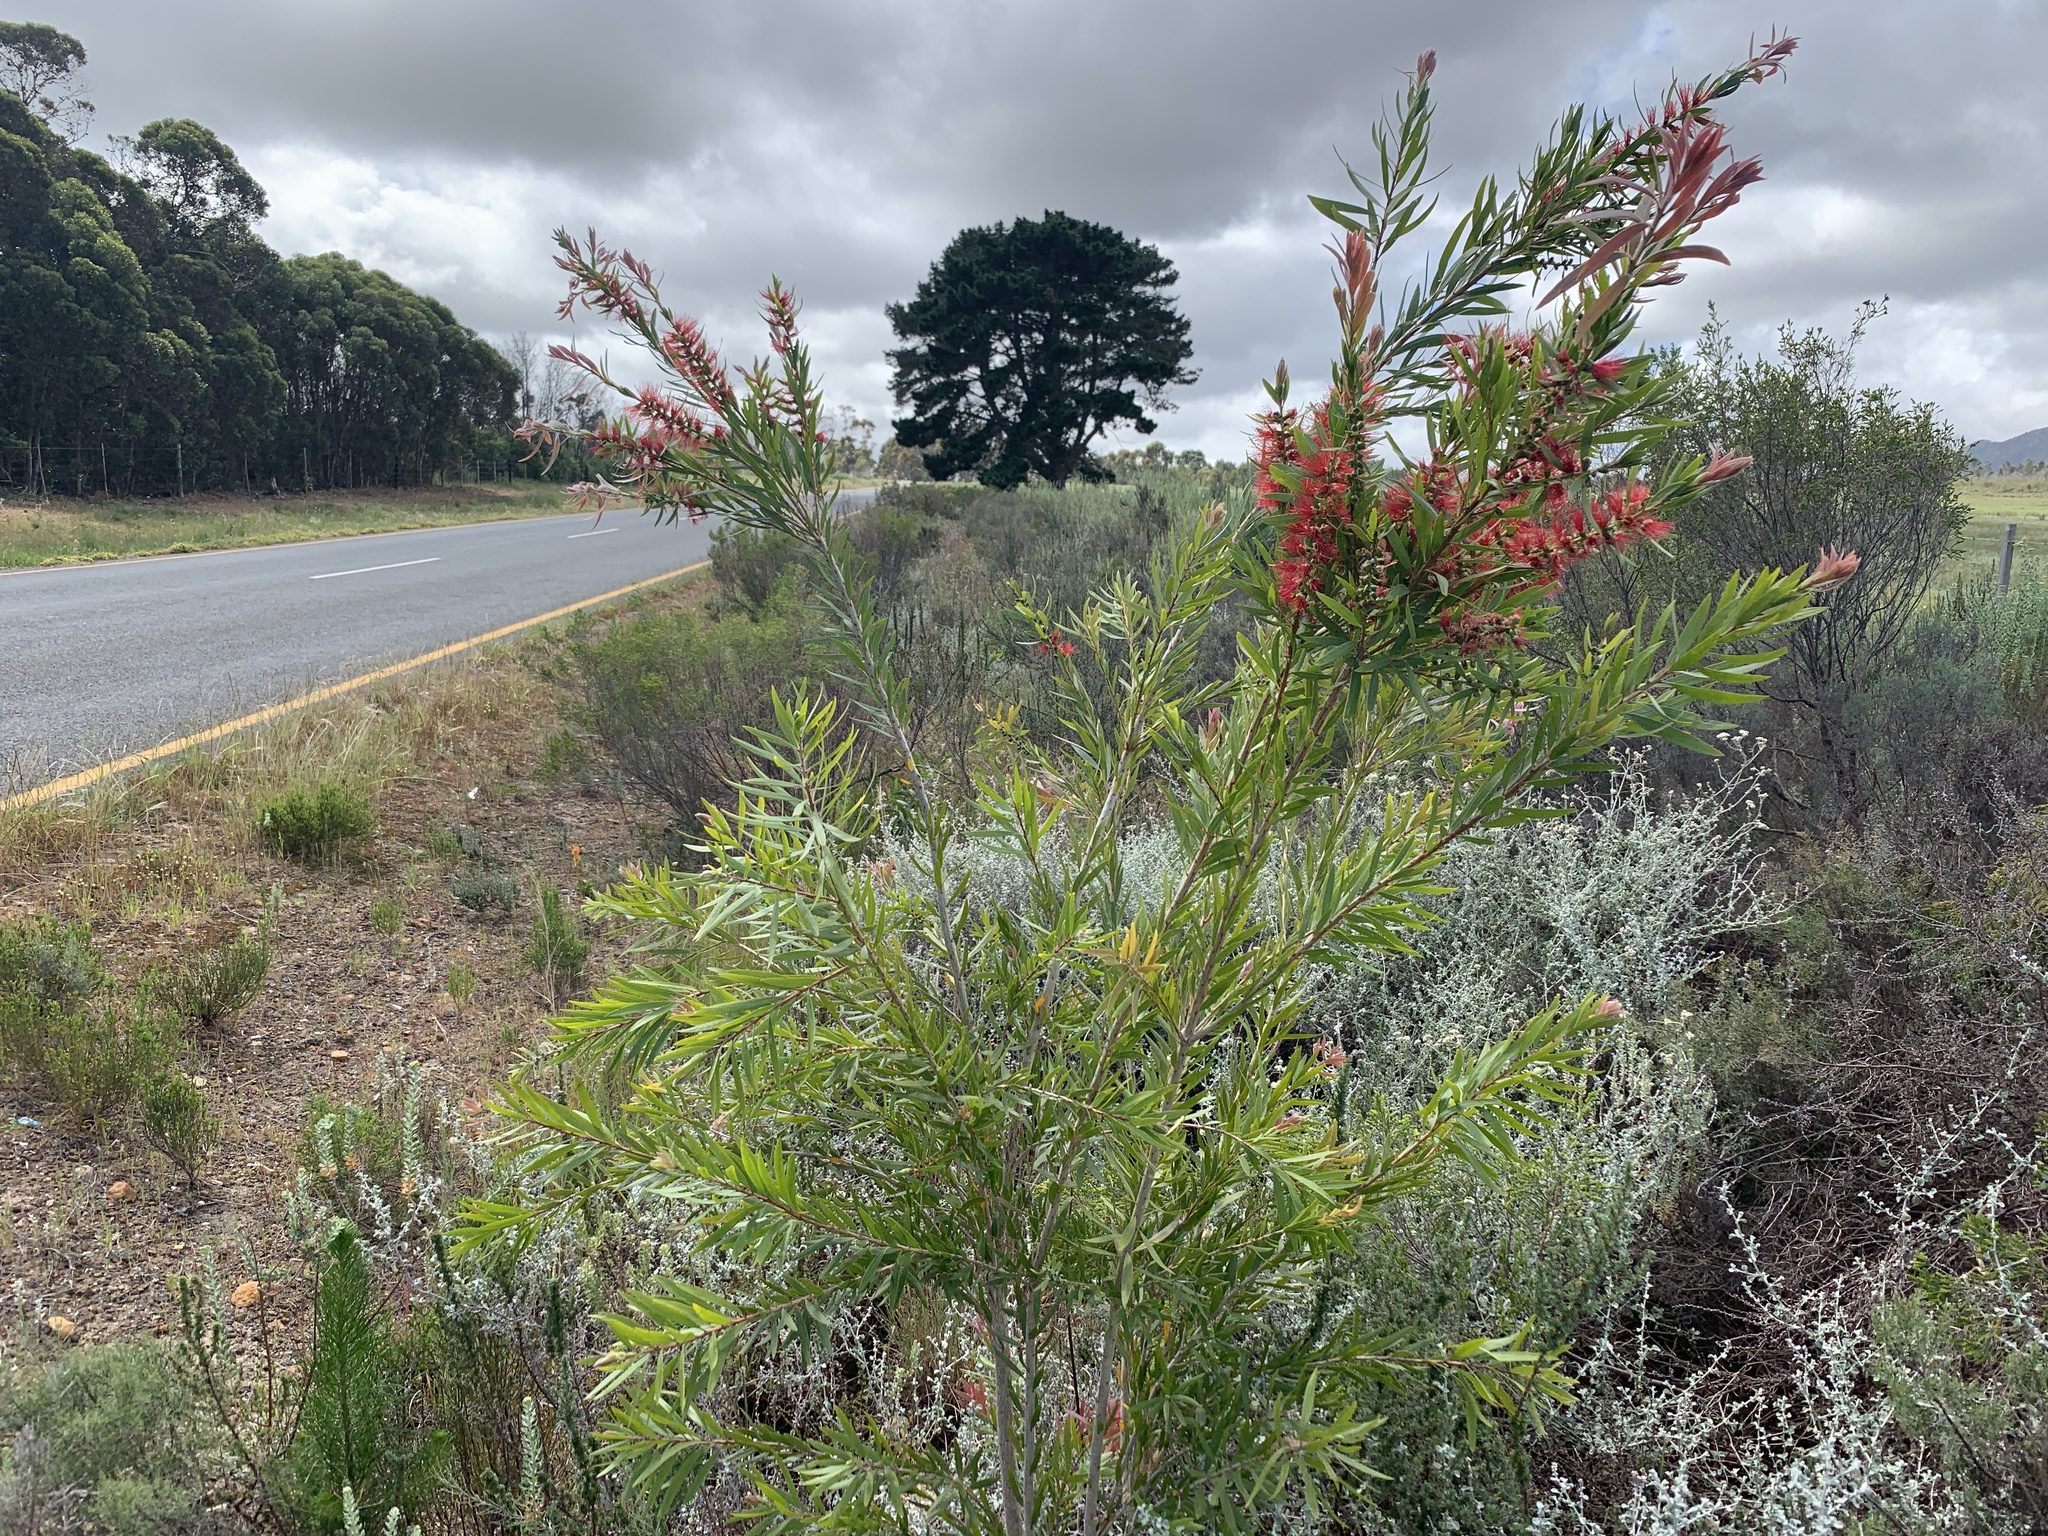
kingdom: Plantae
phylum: Tracheophyta
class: Magnoliopsida
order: Myrtales
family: Myrtaceae
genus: Callistemon
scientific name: Callistemon viminalis
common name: Drooping bottlebrush
